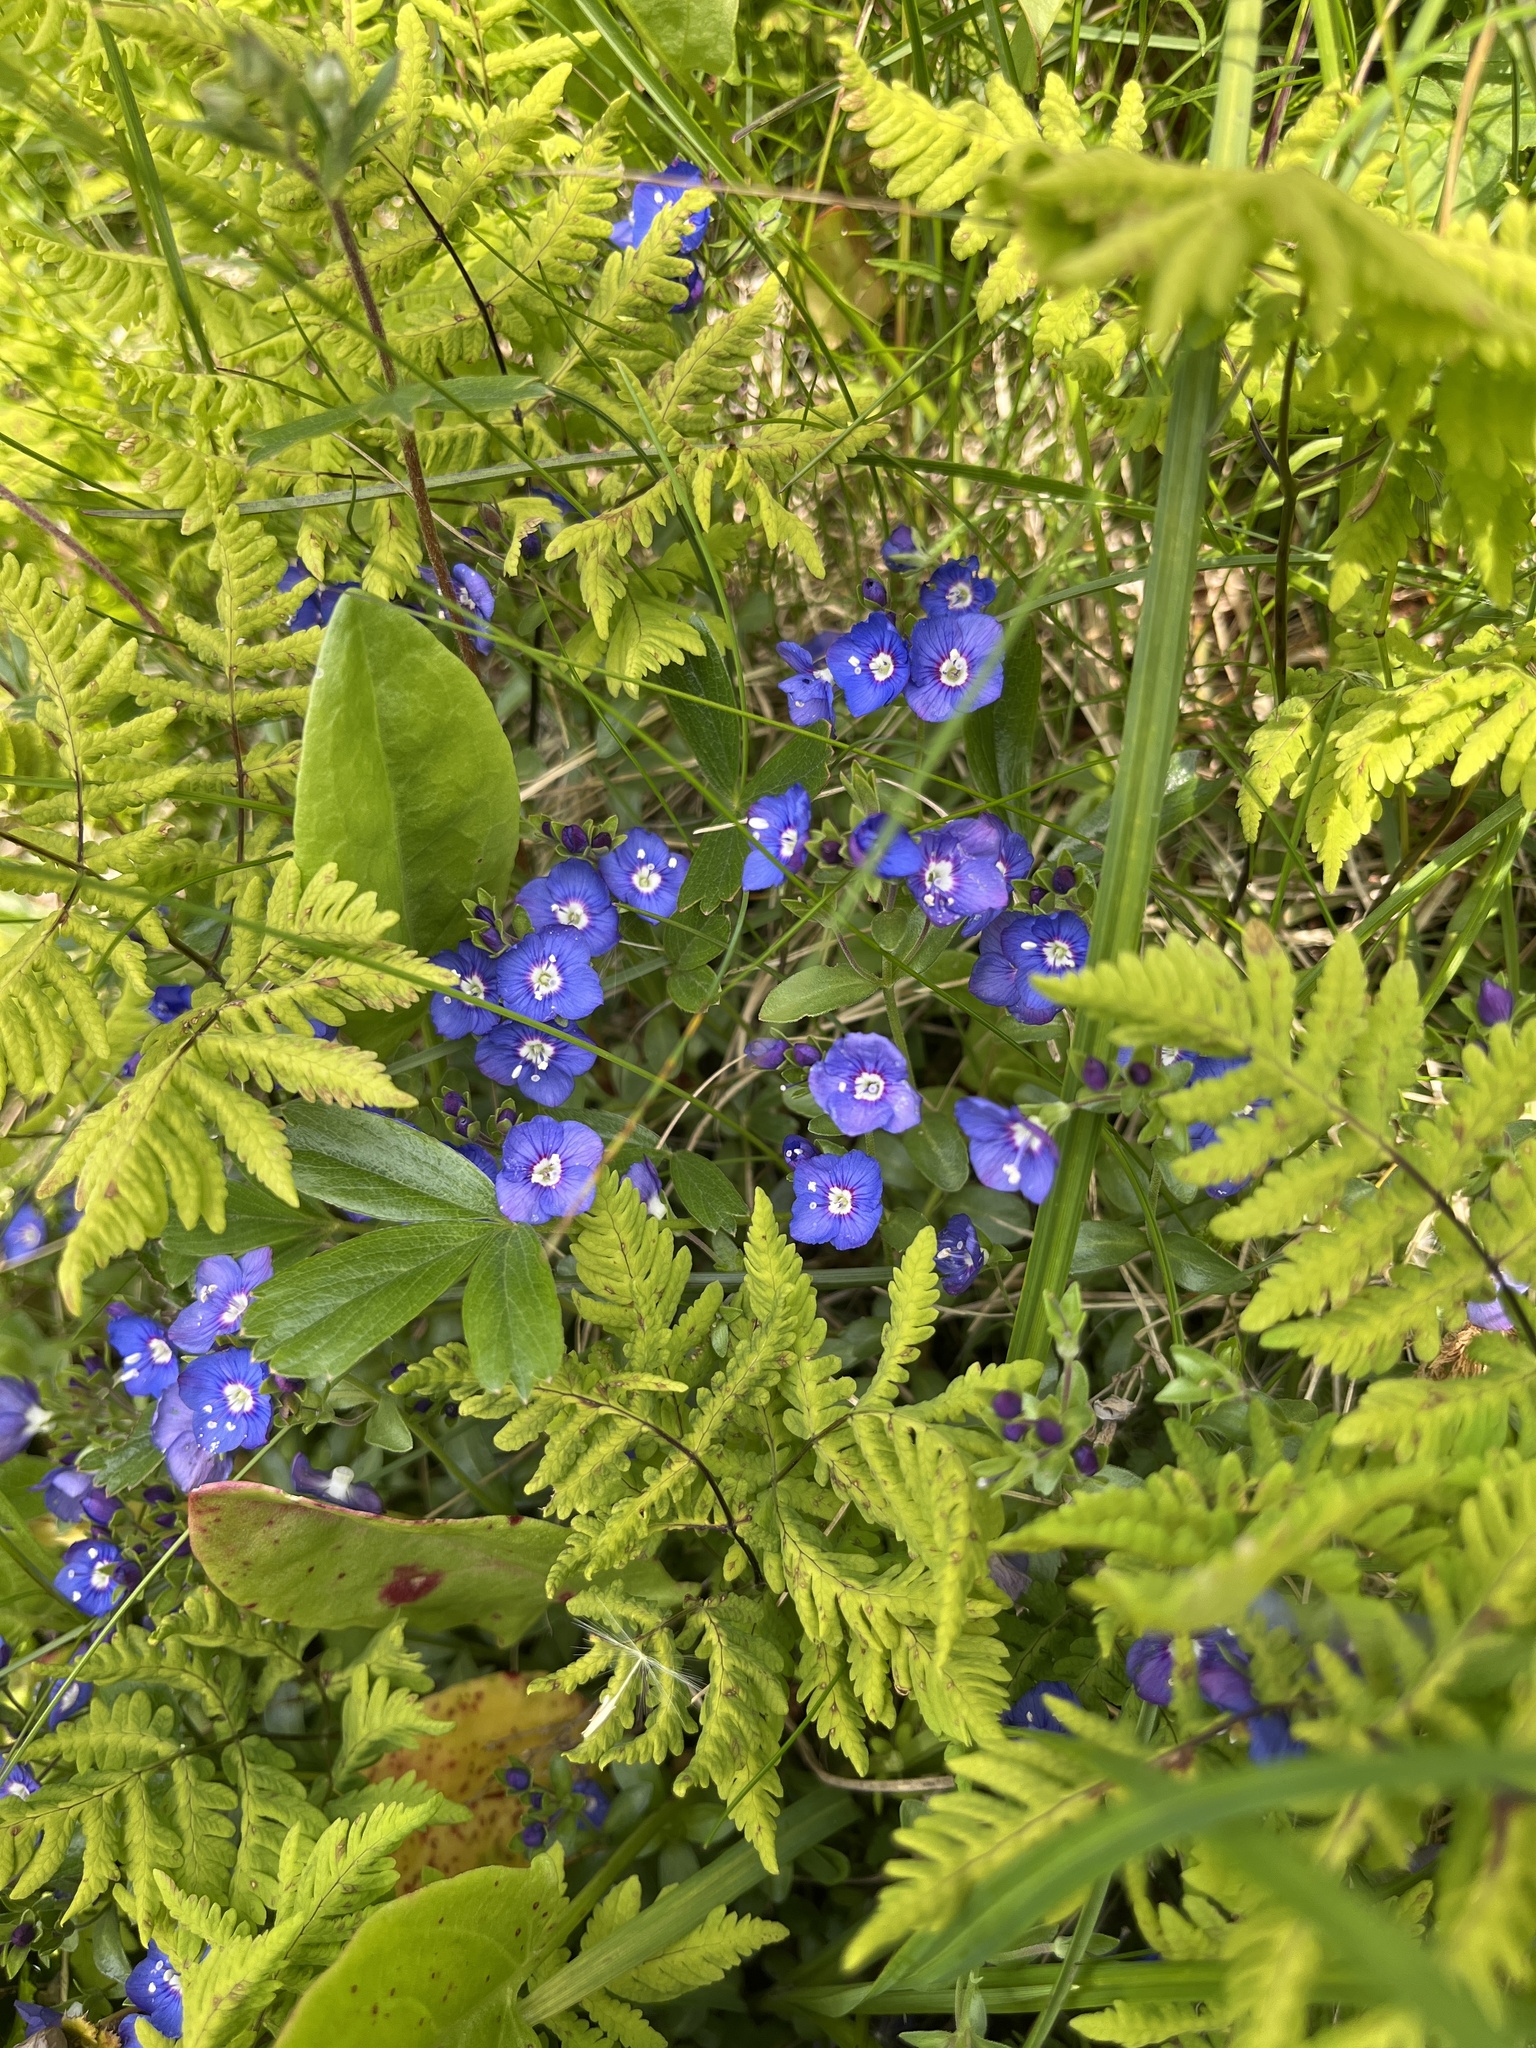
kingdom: Plantae
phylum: Tracheophyta
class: Magnoliopsida
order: Lamiales
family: Plantaginaceae
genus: Veronica
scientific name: Veronica fruticans
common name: Rock speedwell
